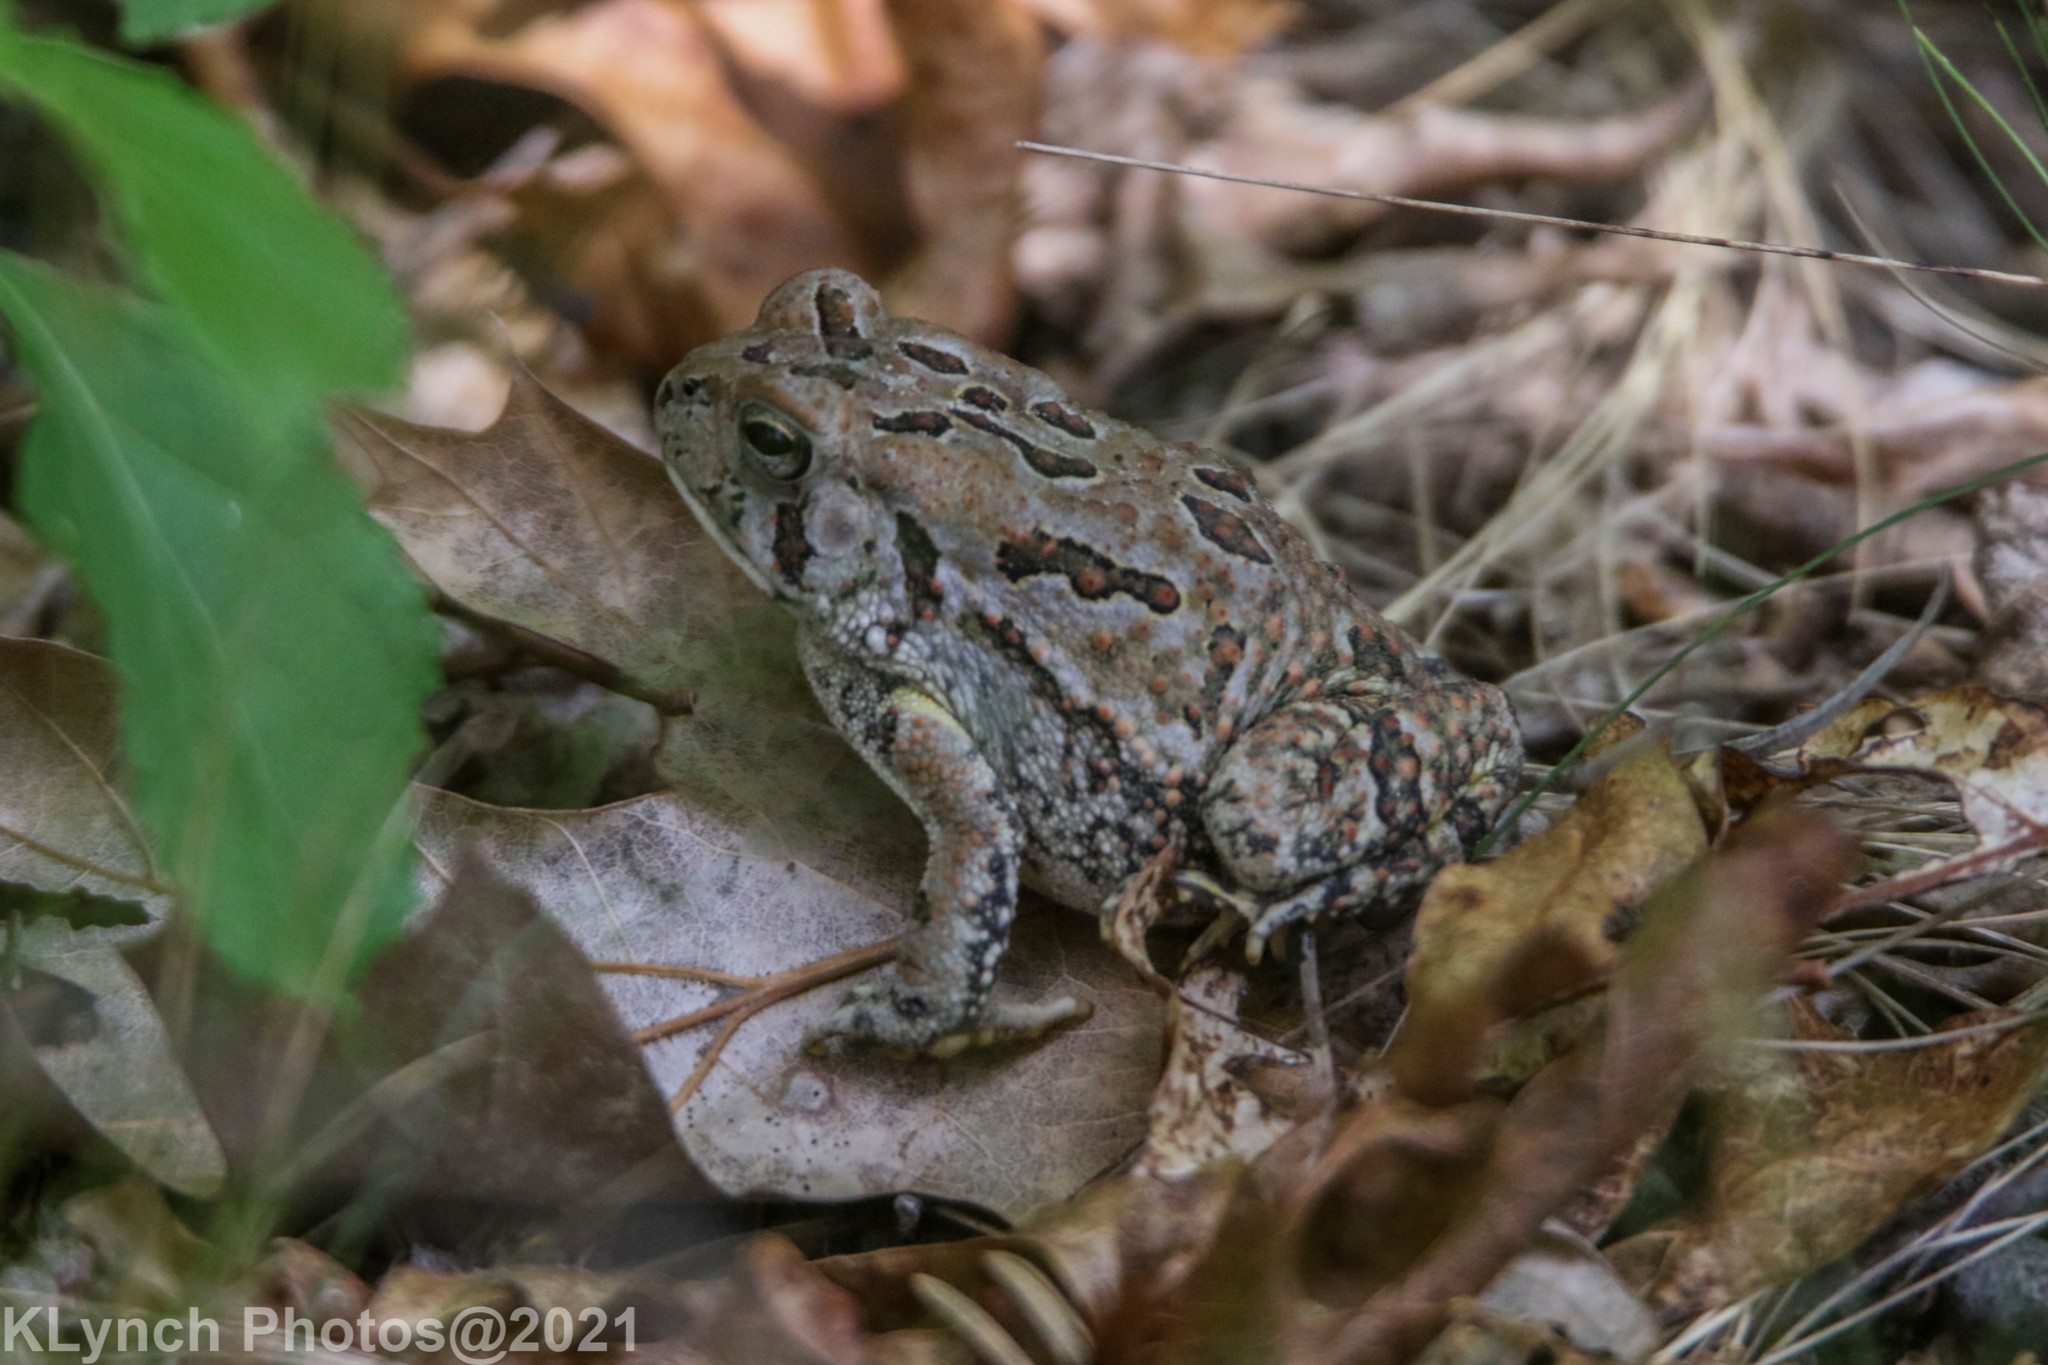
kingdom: Animalia
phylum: Chordata
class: Amphibia
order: Anura
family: Bufonidae
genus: Anaxyrus
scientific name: Anaxyrus fowleri
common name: Fowler's toad
